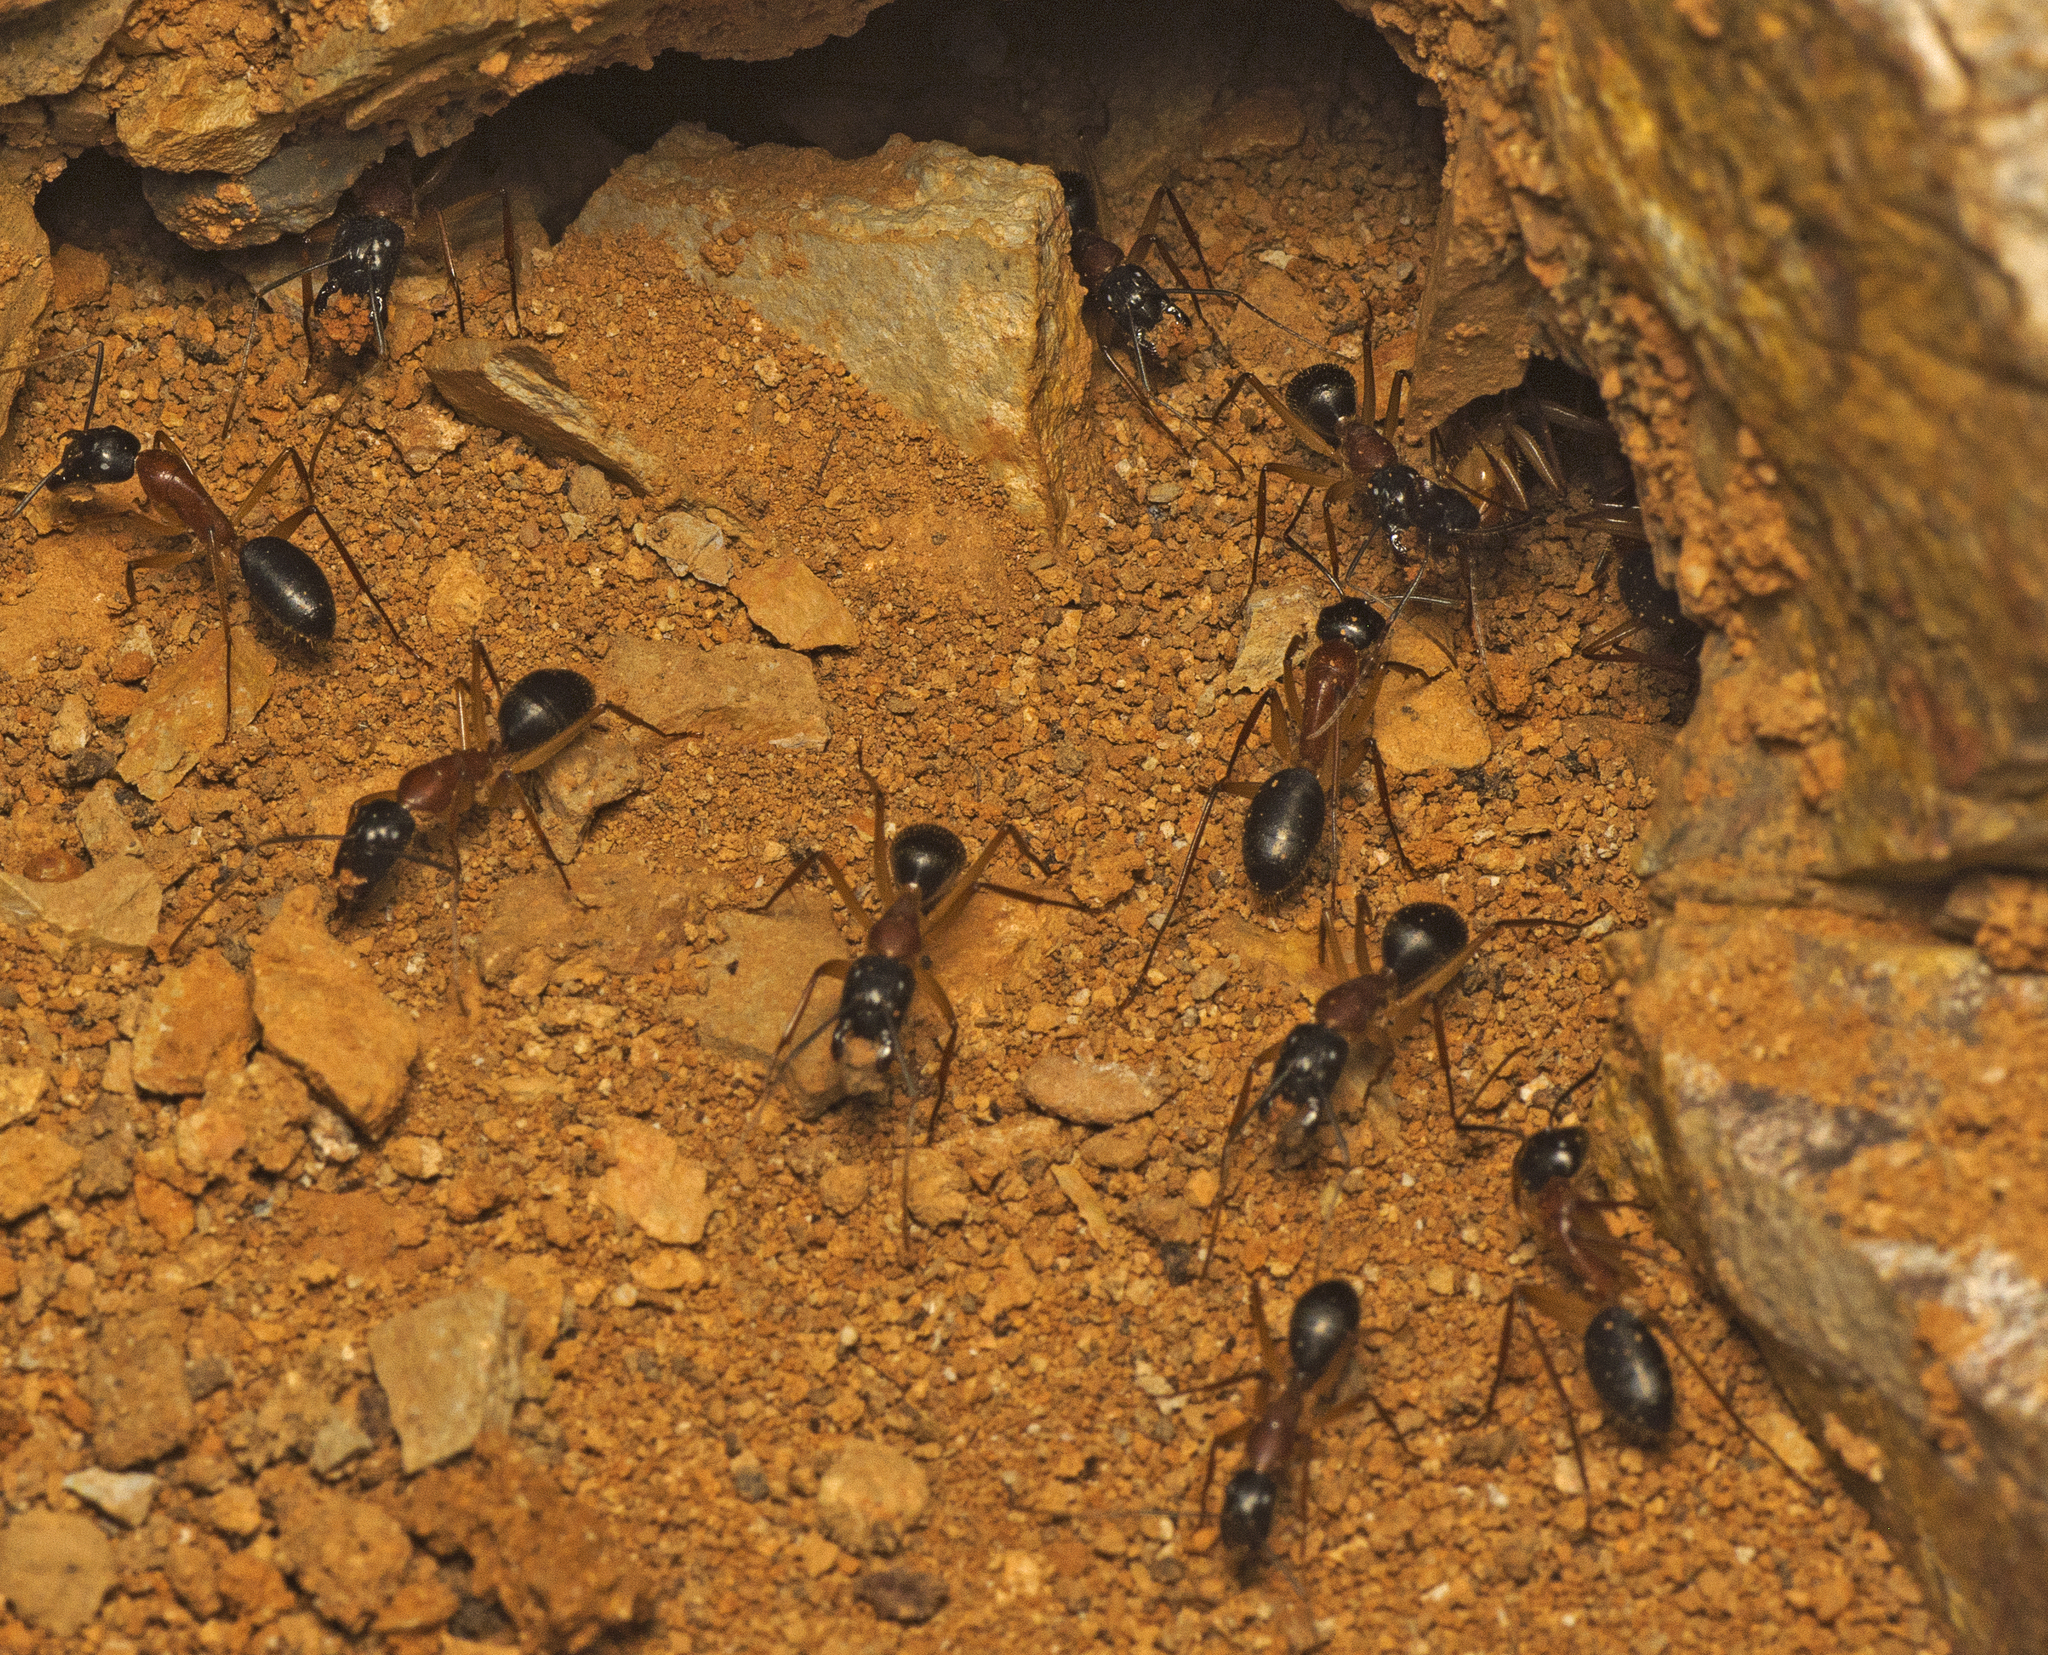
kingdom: Animalia
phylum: Arthropoda
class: Insecta
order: Hymenoptera
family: Formicidae
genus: Camponotus
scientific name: Camponotus nigriceps
